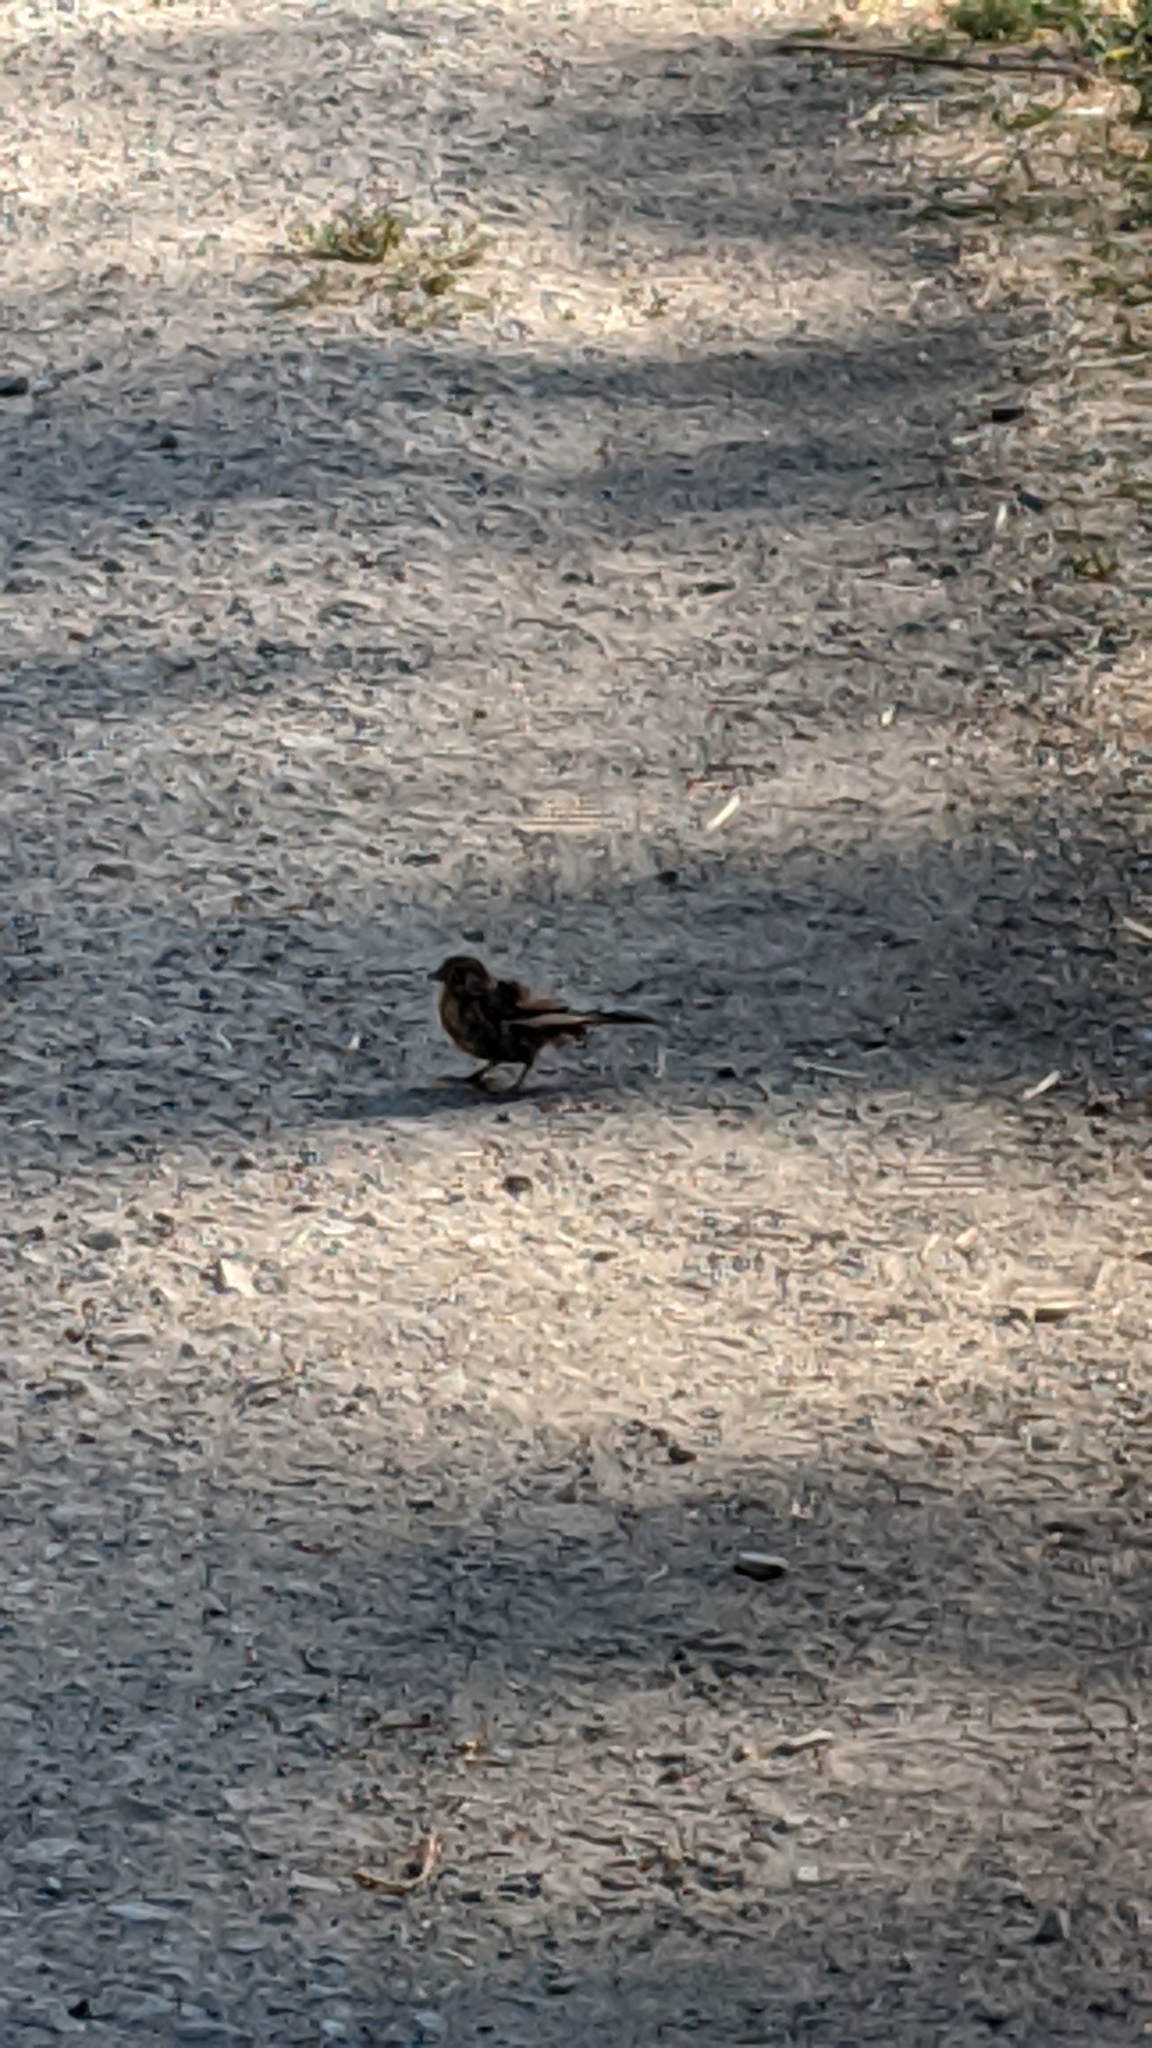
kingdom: Animalia
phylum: Chordata
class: Aves
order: Passeriformes
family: Passerellidae
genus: Melozone
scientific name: Melozone crissalis
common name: California towhee
